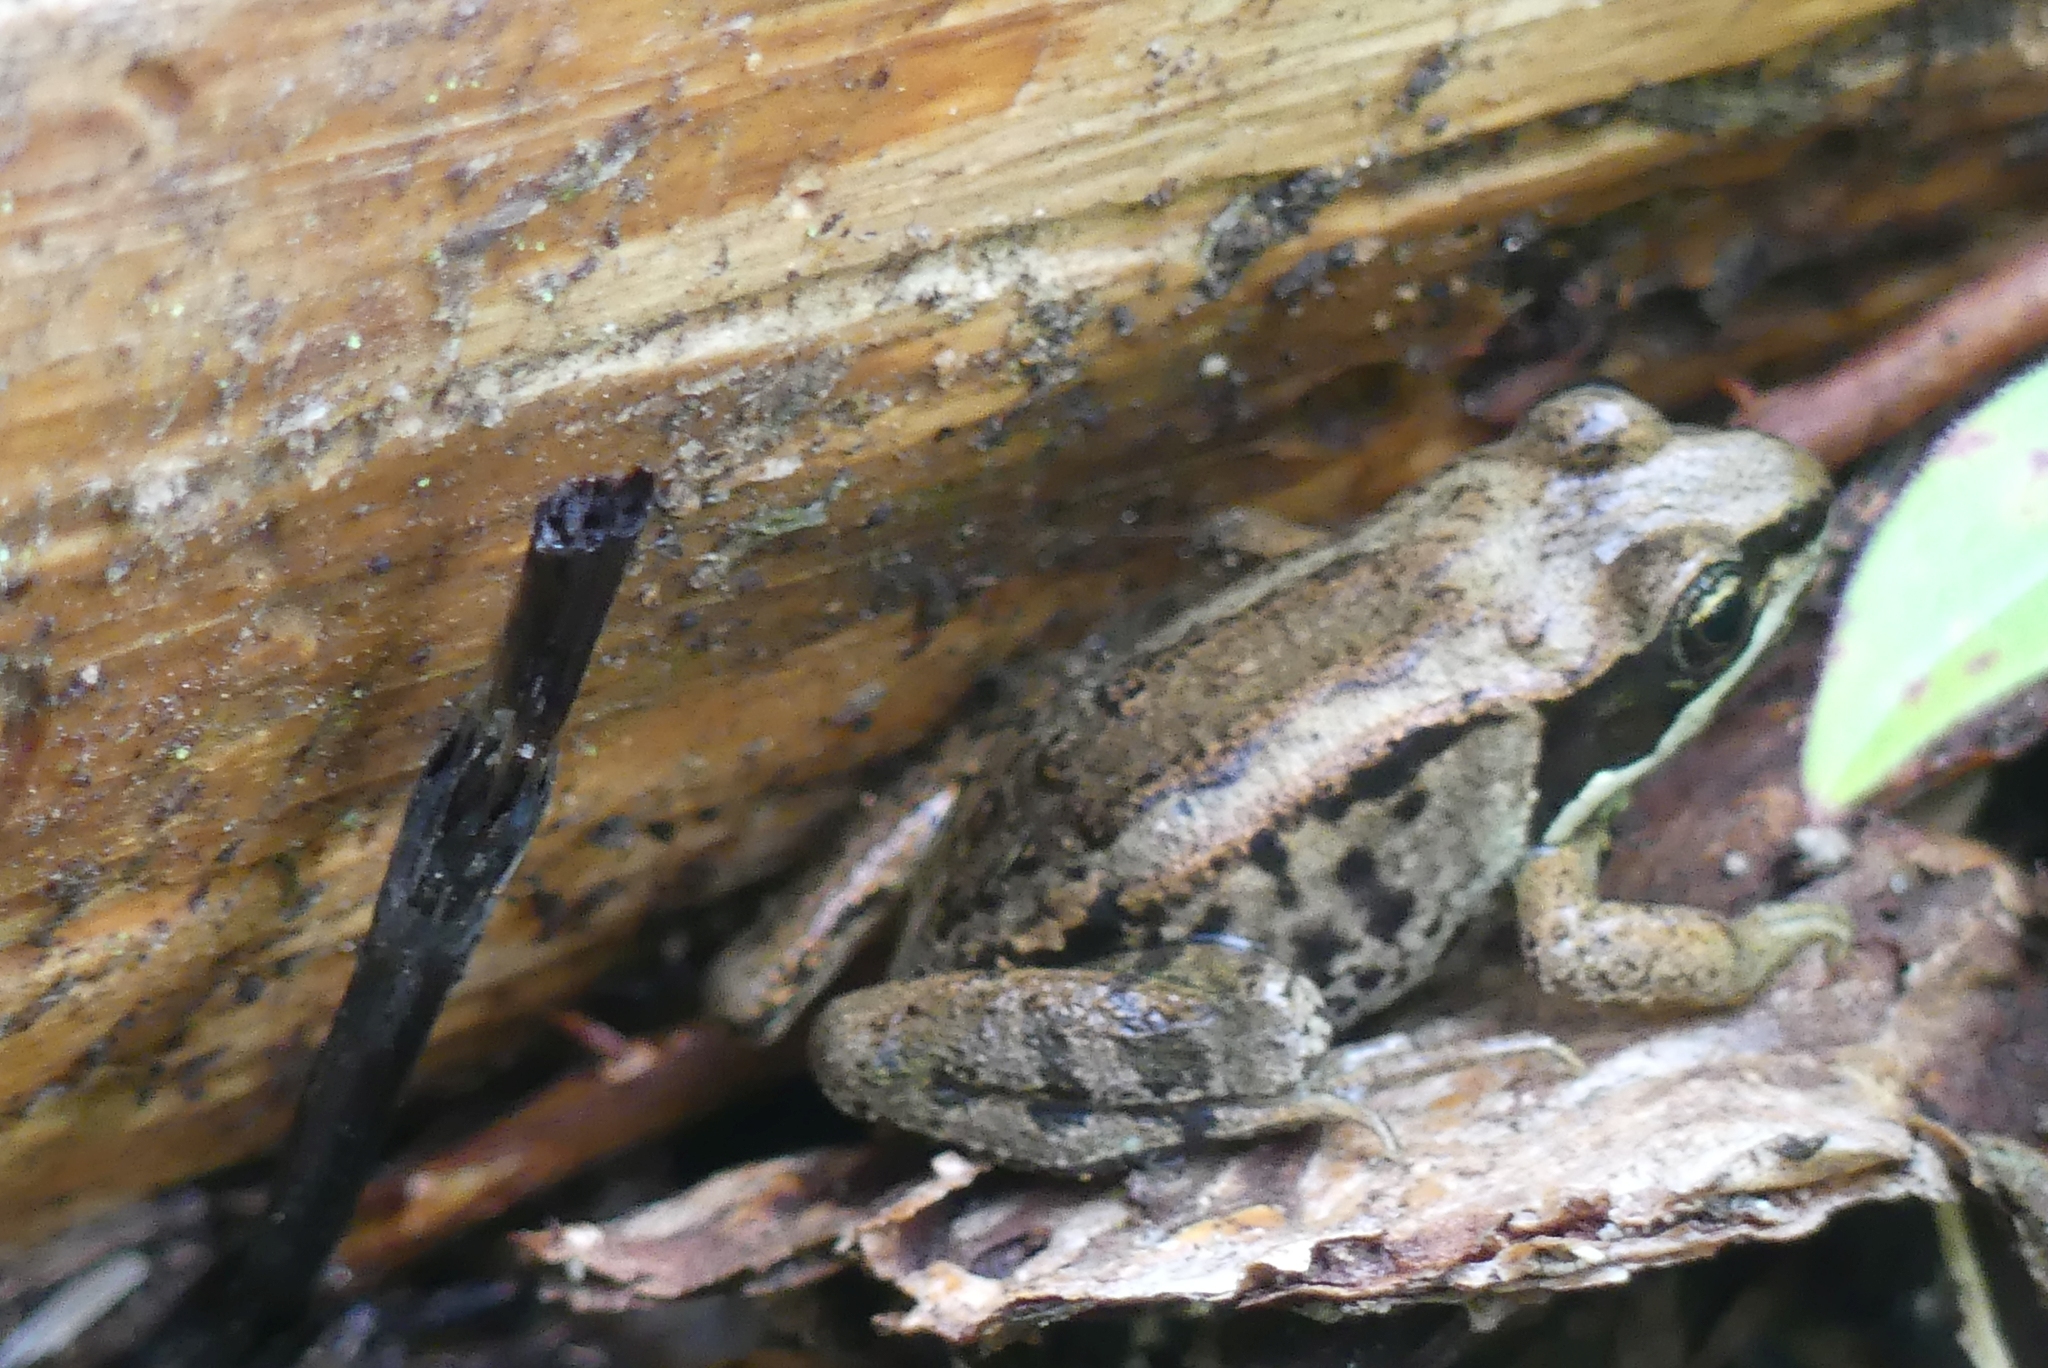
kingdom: Animalia
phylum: Chordata
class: Amphibia
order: Anura
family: Ranidae
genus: Lithobates
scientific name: Lithobates sylvaticus
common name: Wood frog
